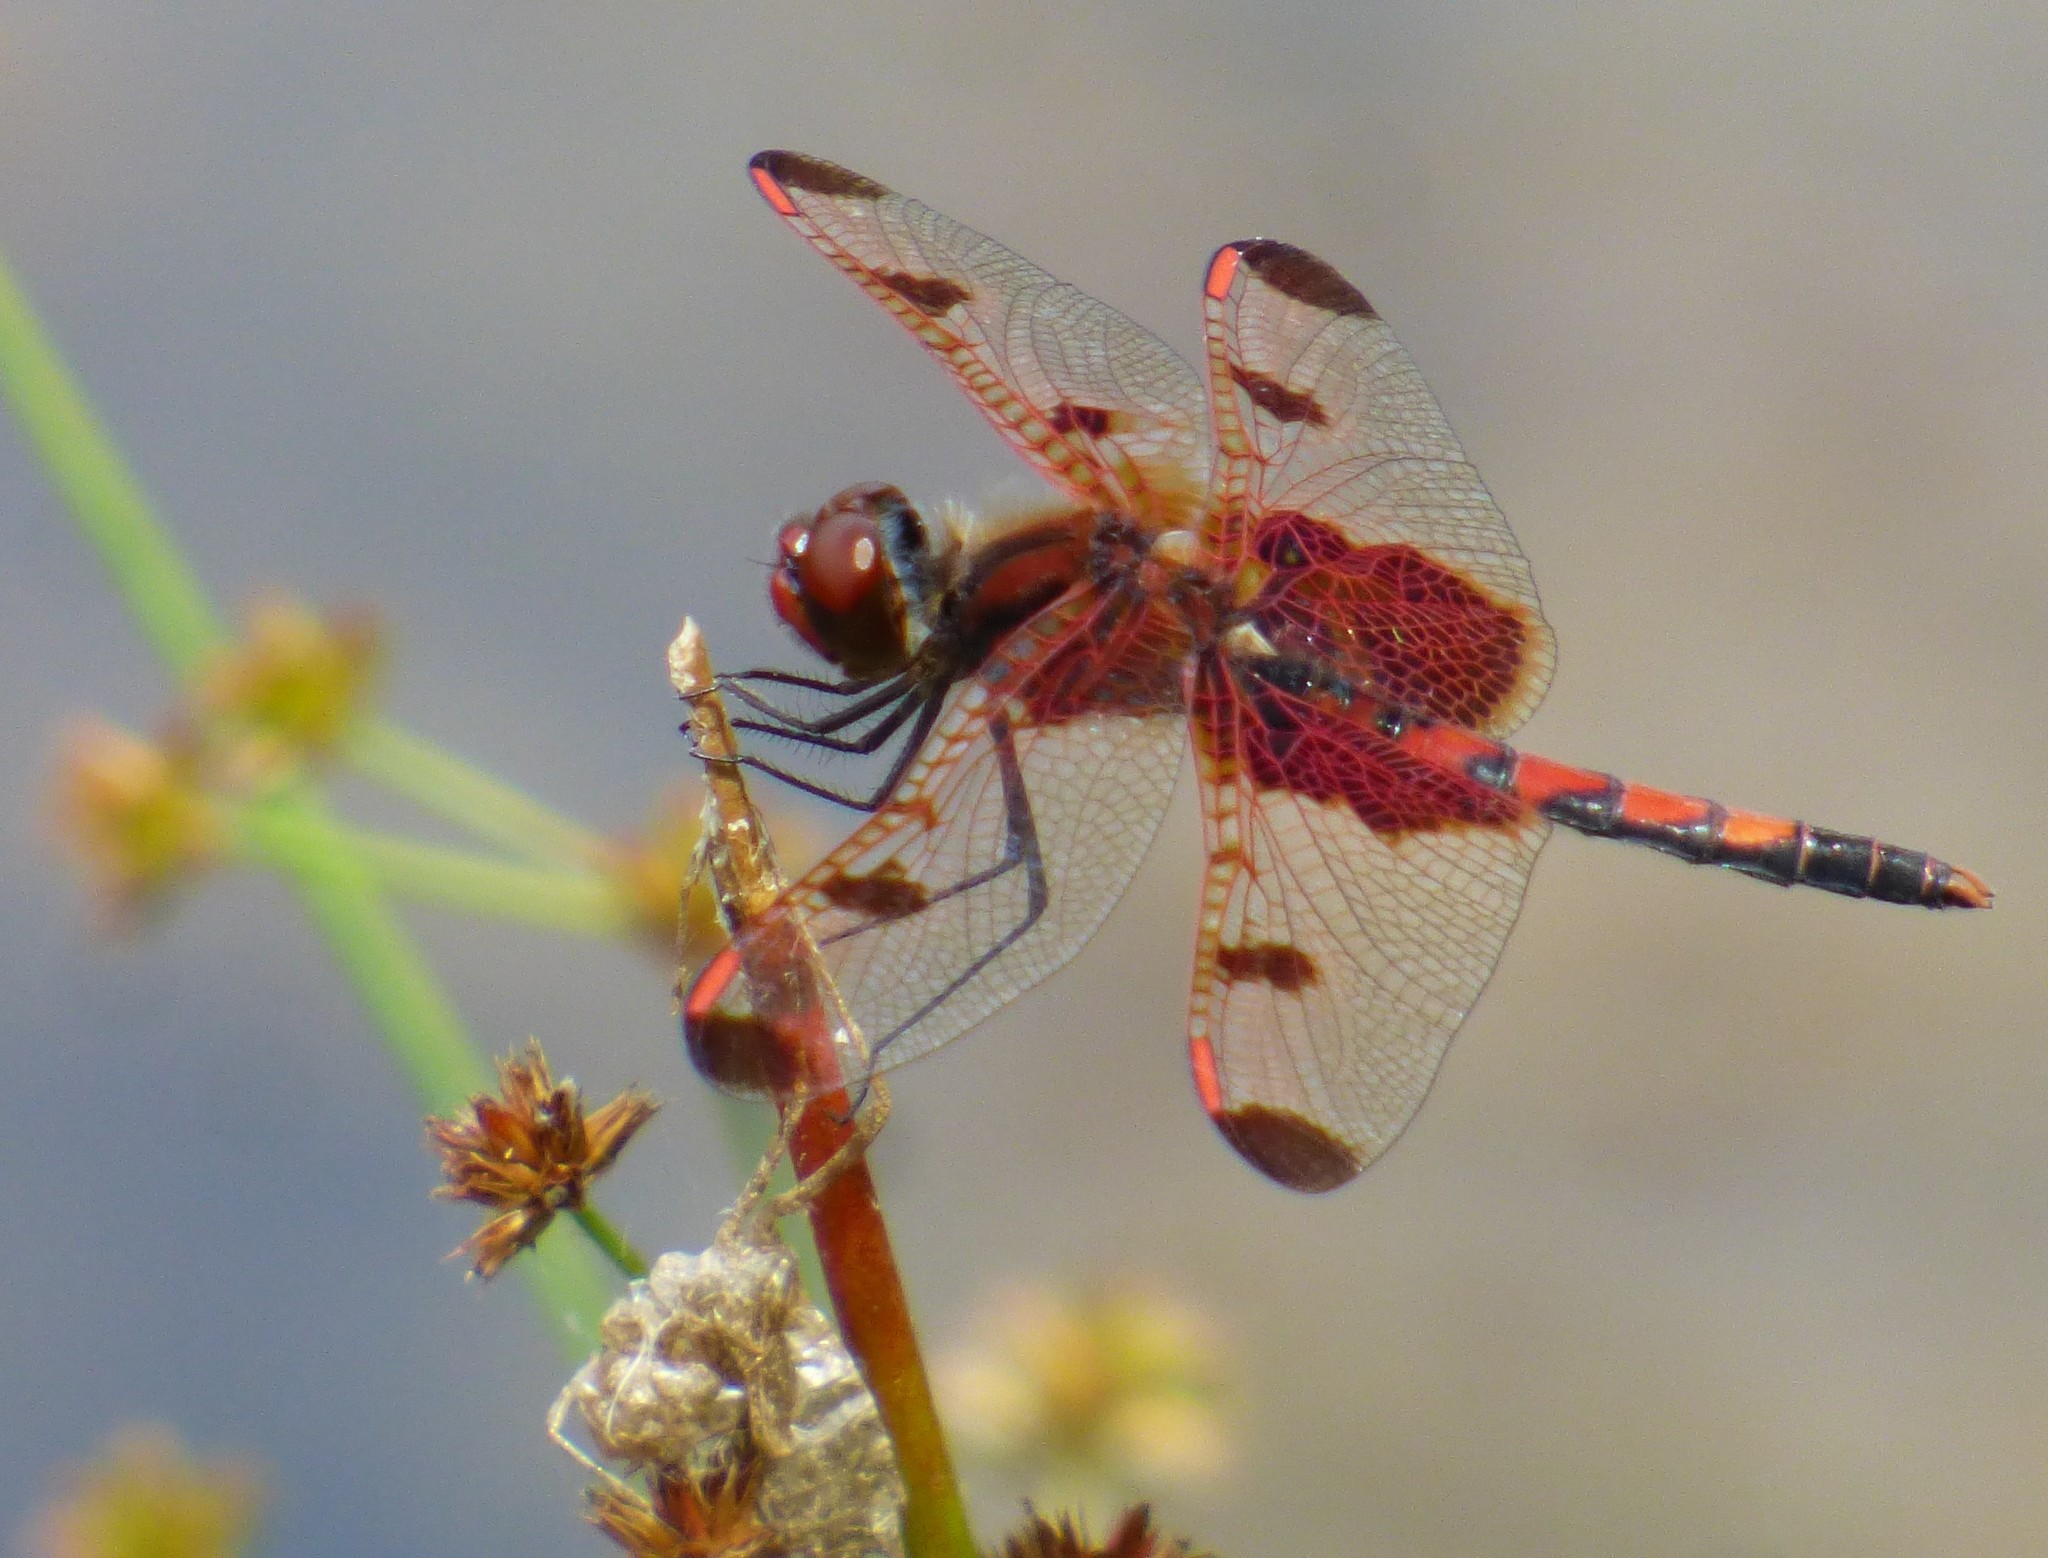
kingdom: Animalia
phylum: Arthropoda
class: Insecta
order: Odonata
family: Libellulidae
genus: Celithemis
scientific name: Celithemis elisa
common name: Calico pennant
